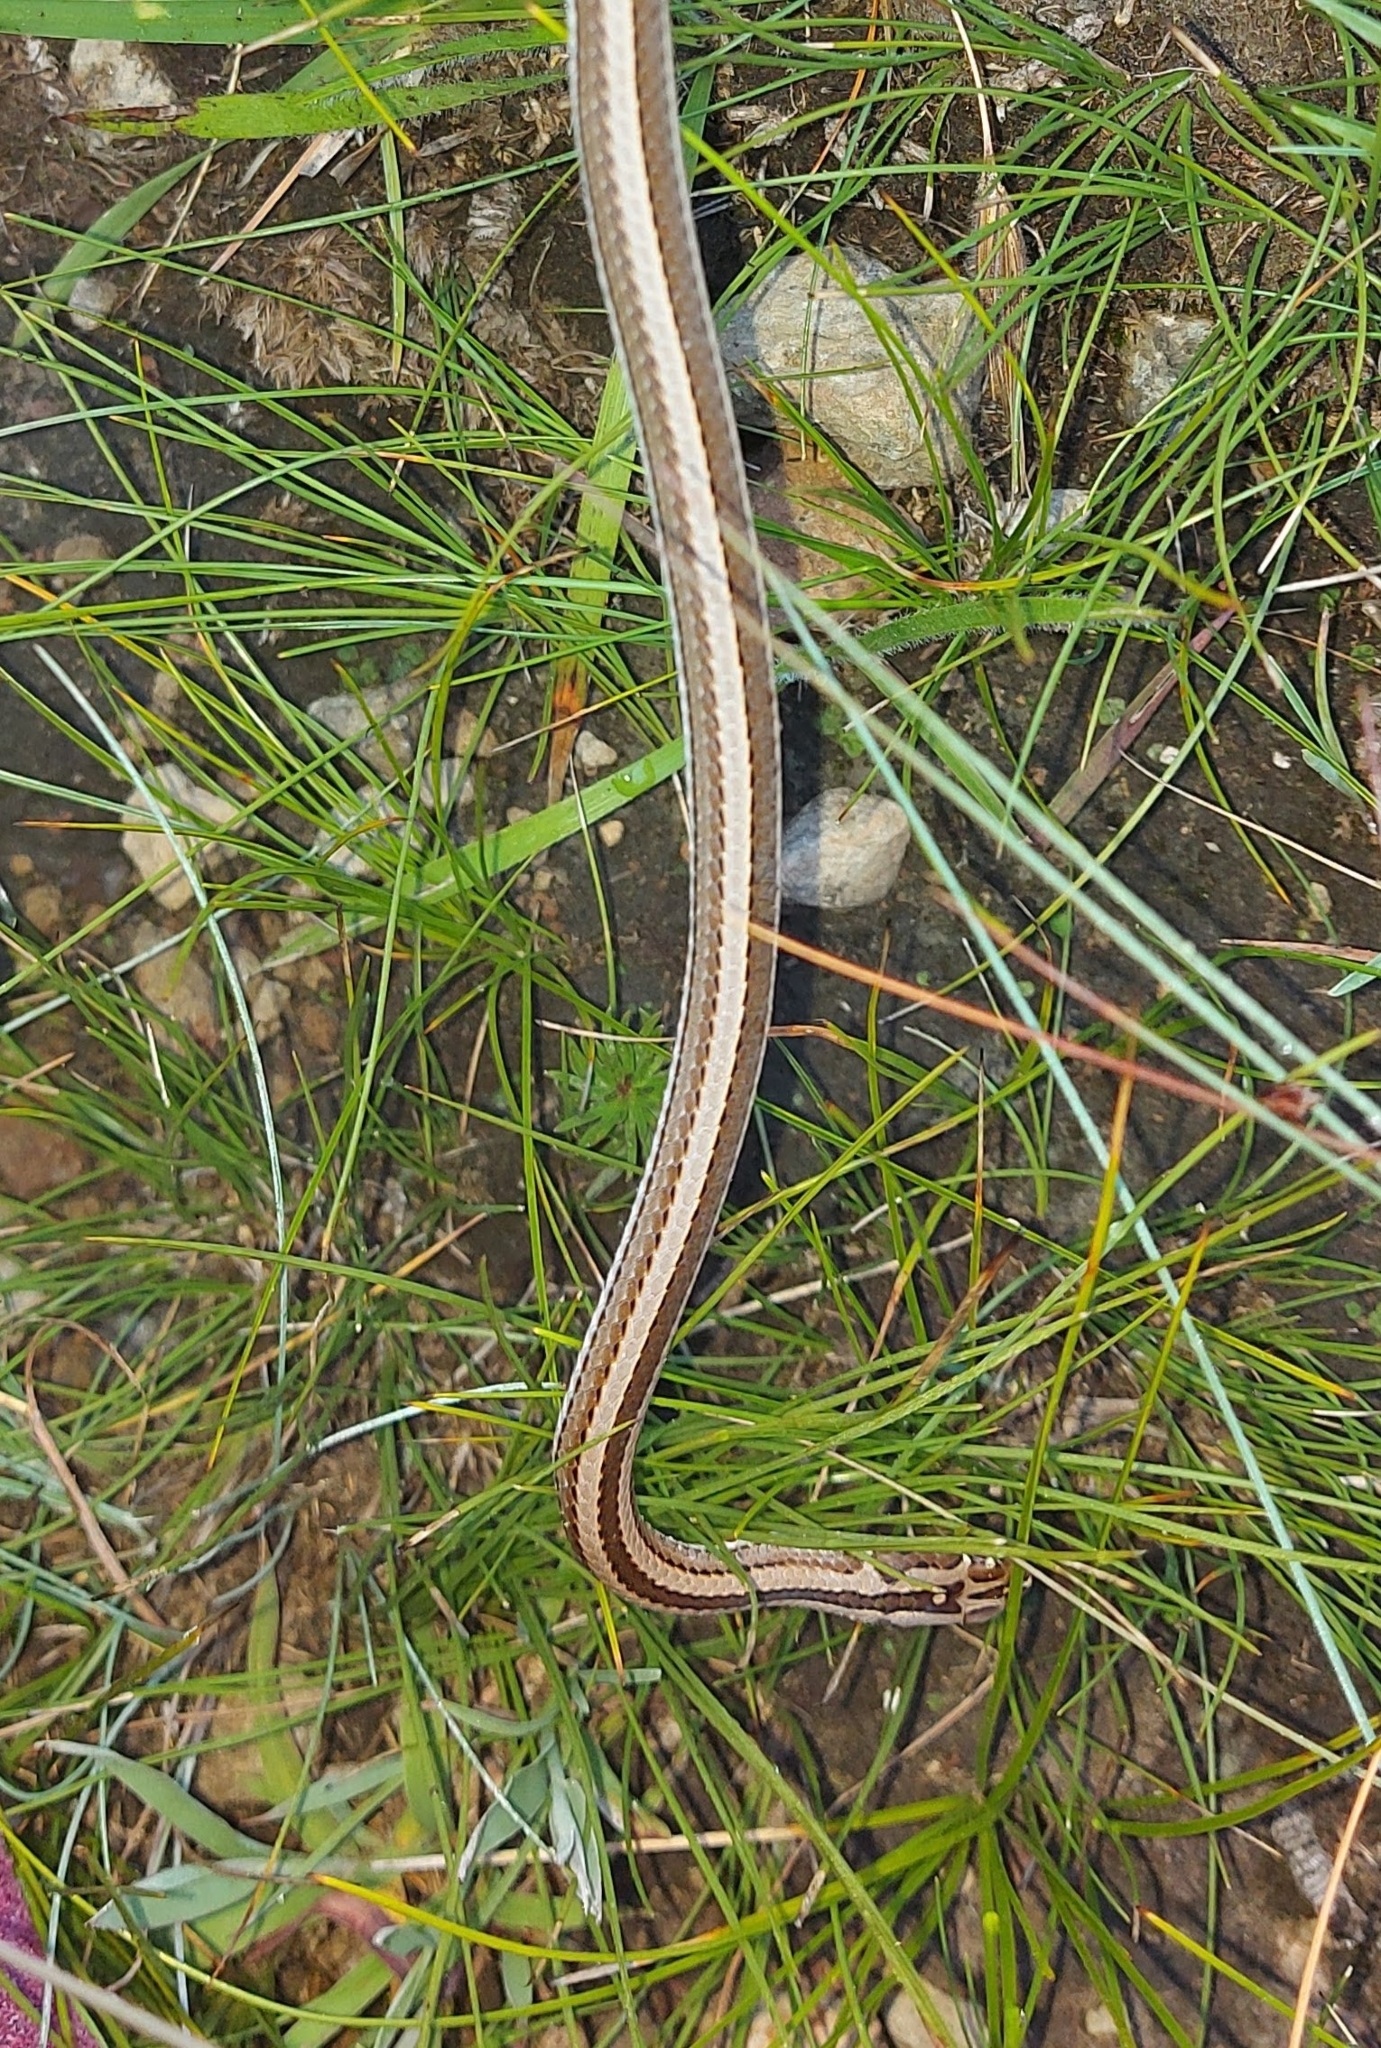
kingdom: Animalia
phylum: Chordata
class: Squamata
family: Psammophiidae
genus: Psammophis
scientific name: Psammophis crucifer
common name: Cross-marked grass snake
